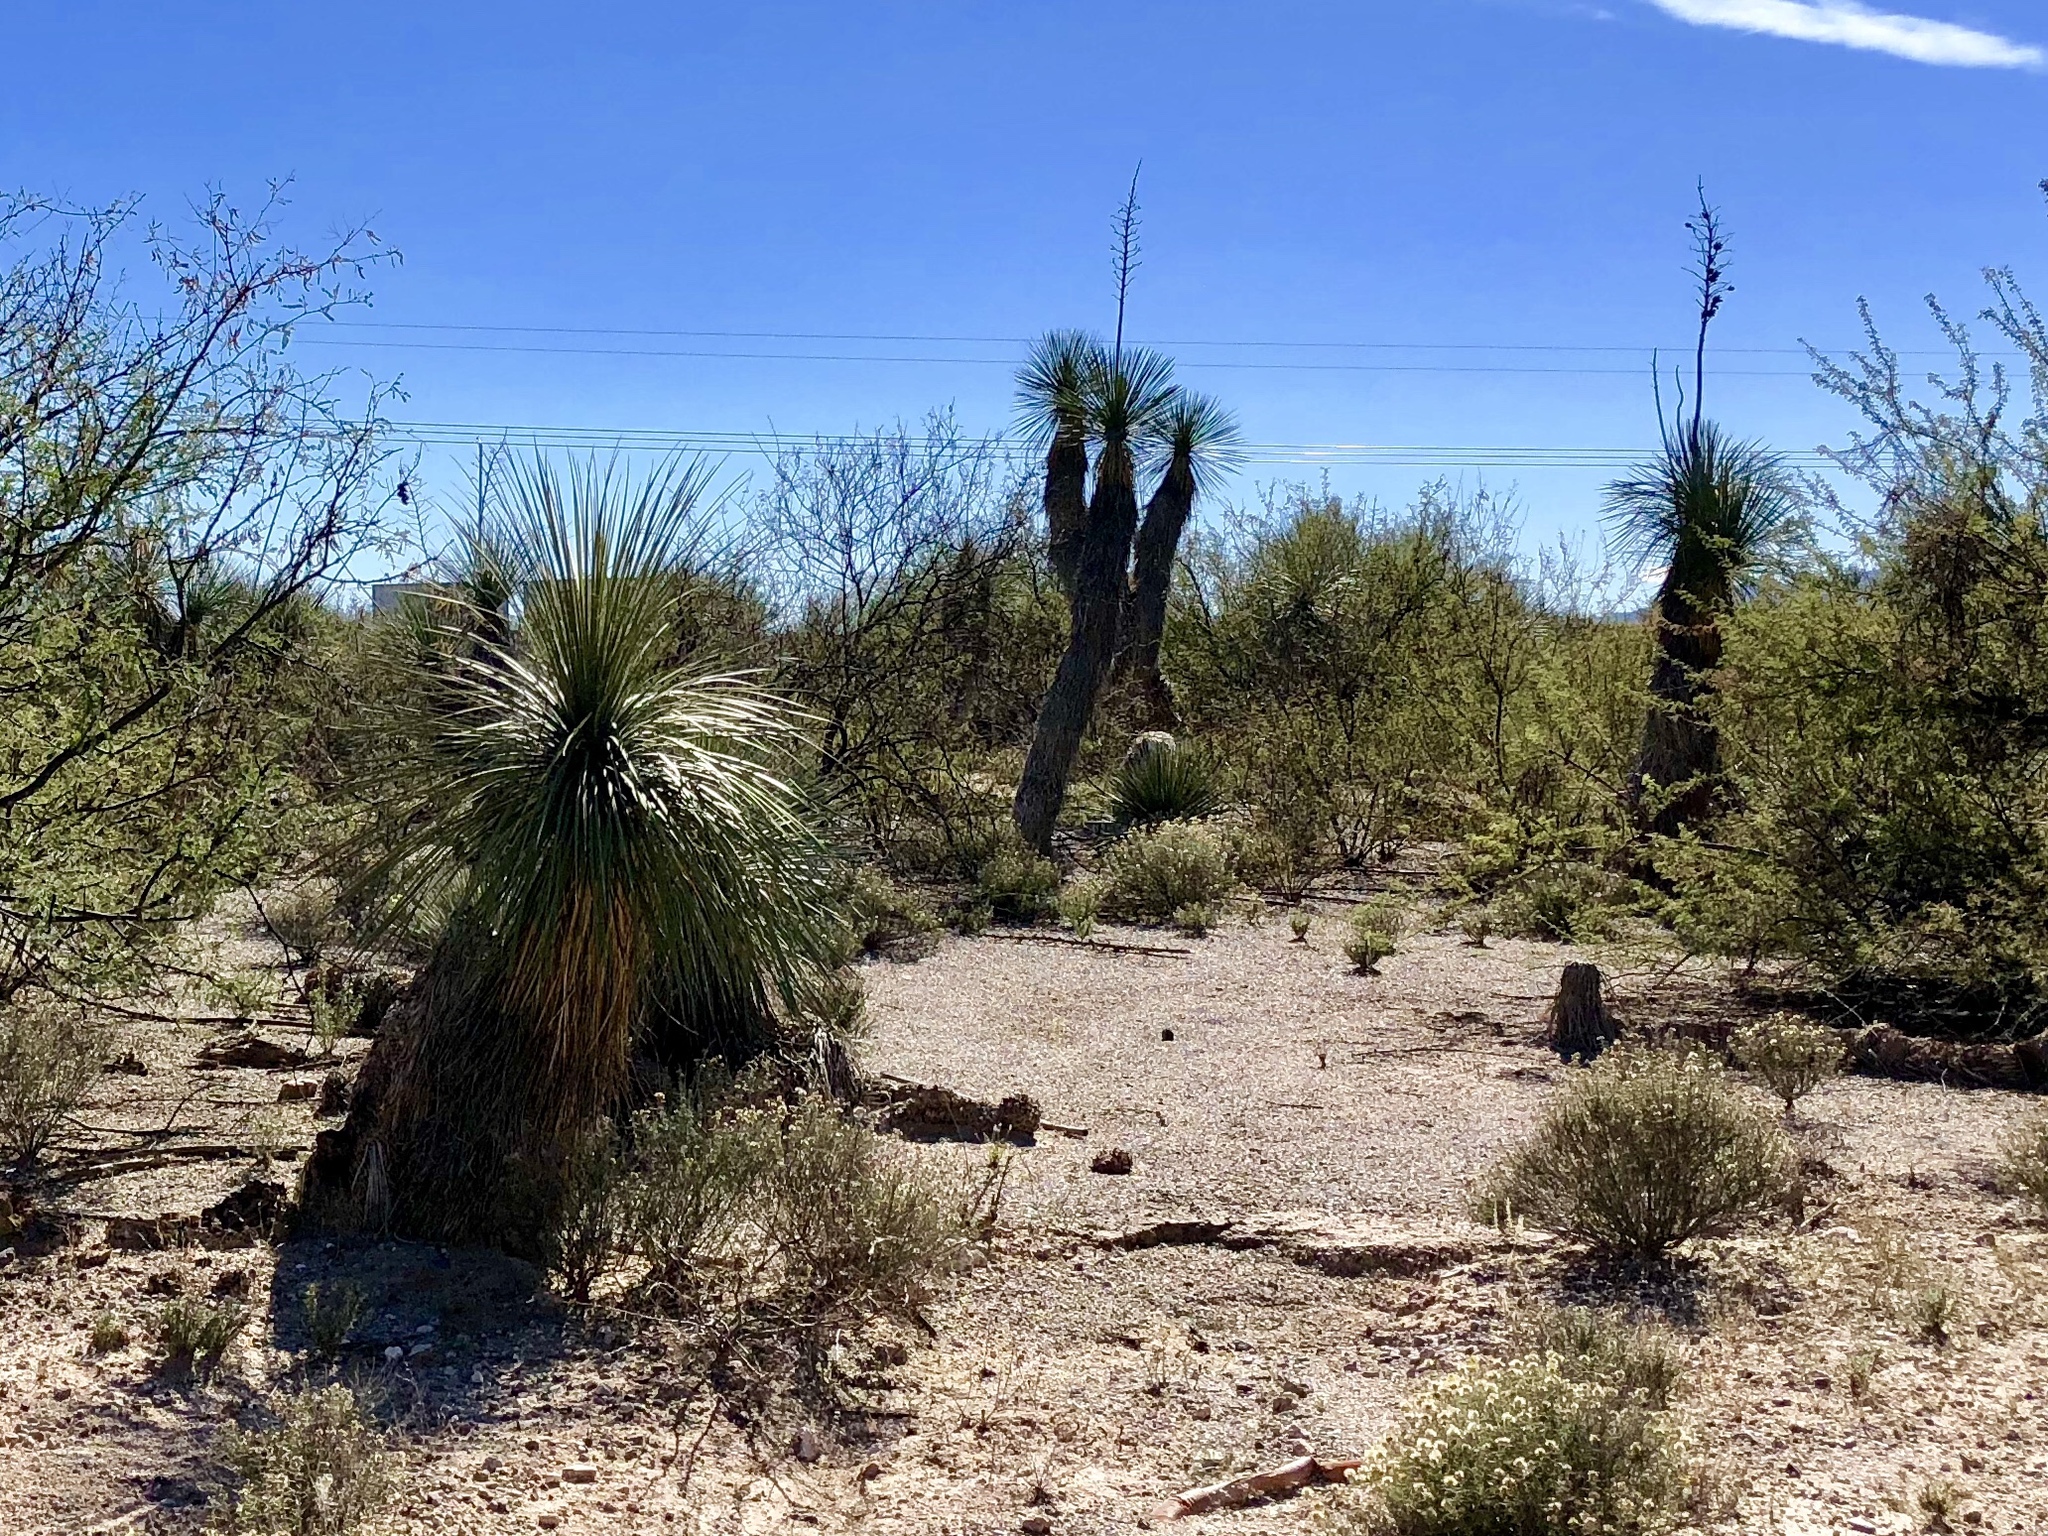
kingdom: Plantae
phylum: Tracheophyta
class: Liliopsida
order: Asparagales
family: Asparagaceae
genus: Yucca
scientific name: Yucca elata
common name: Palmella
